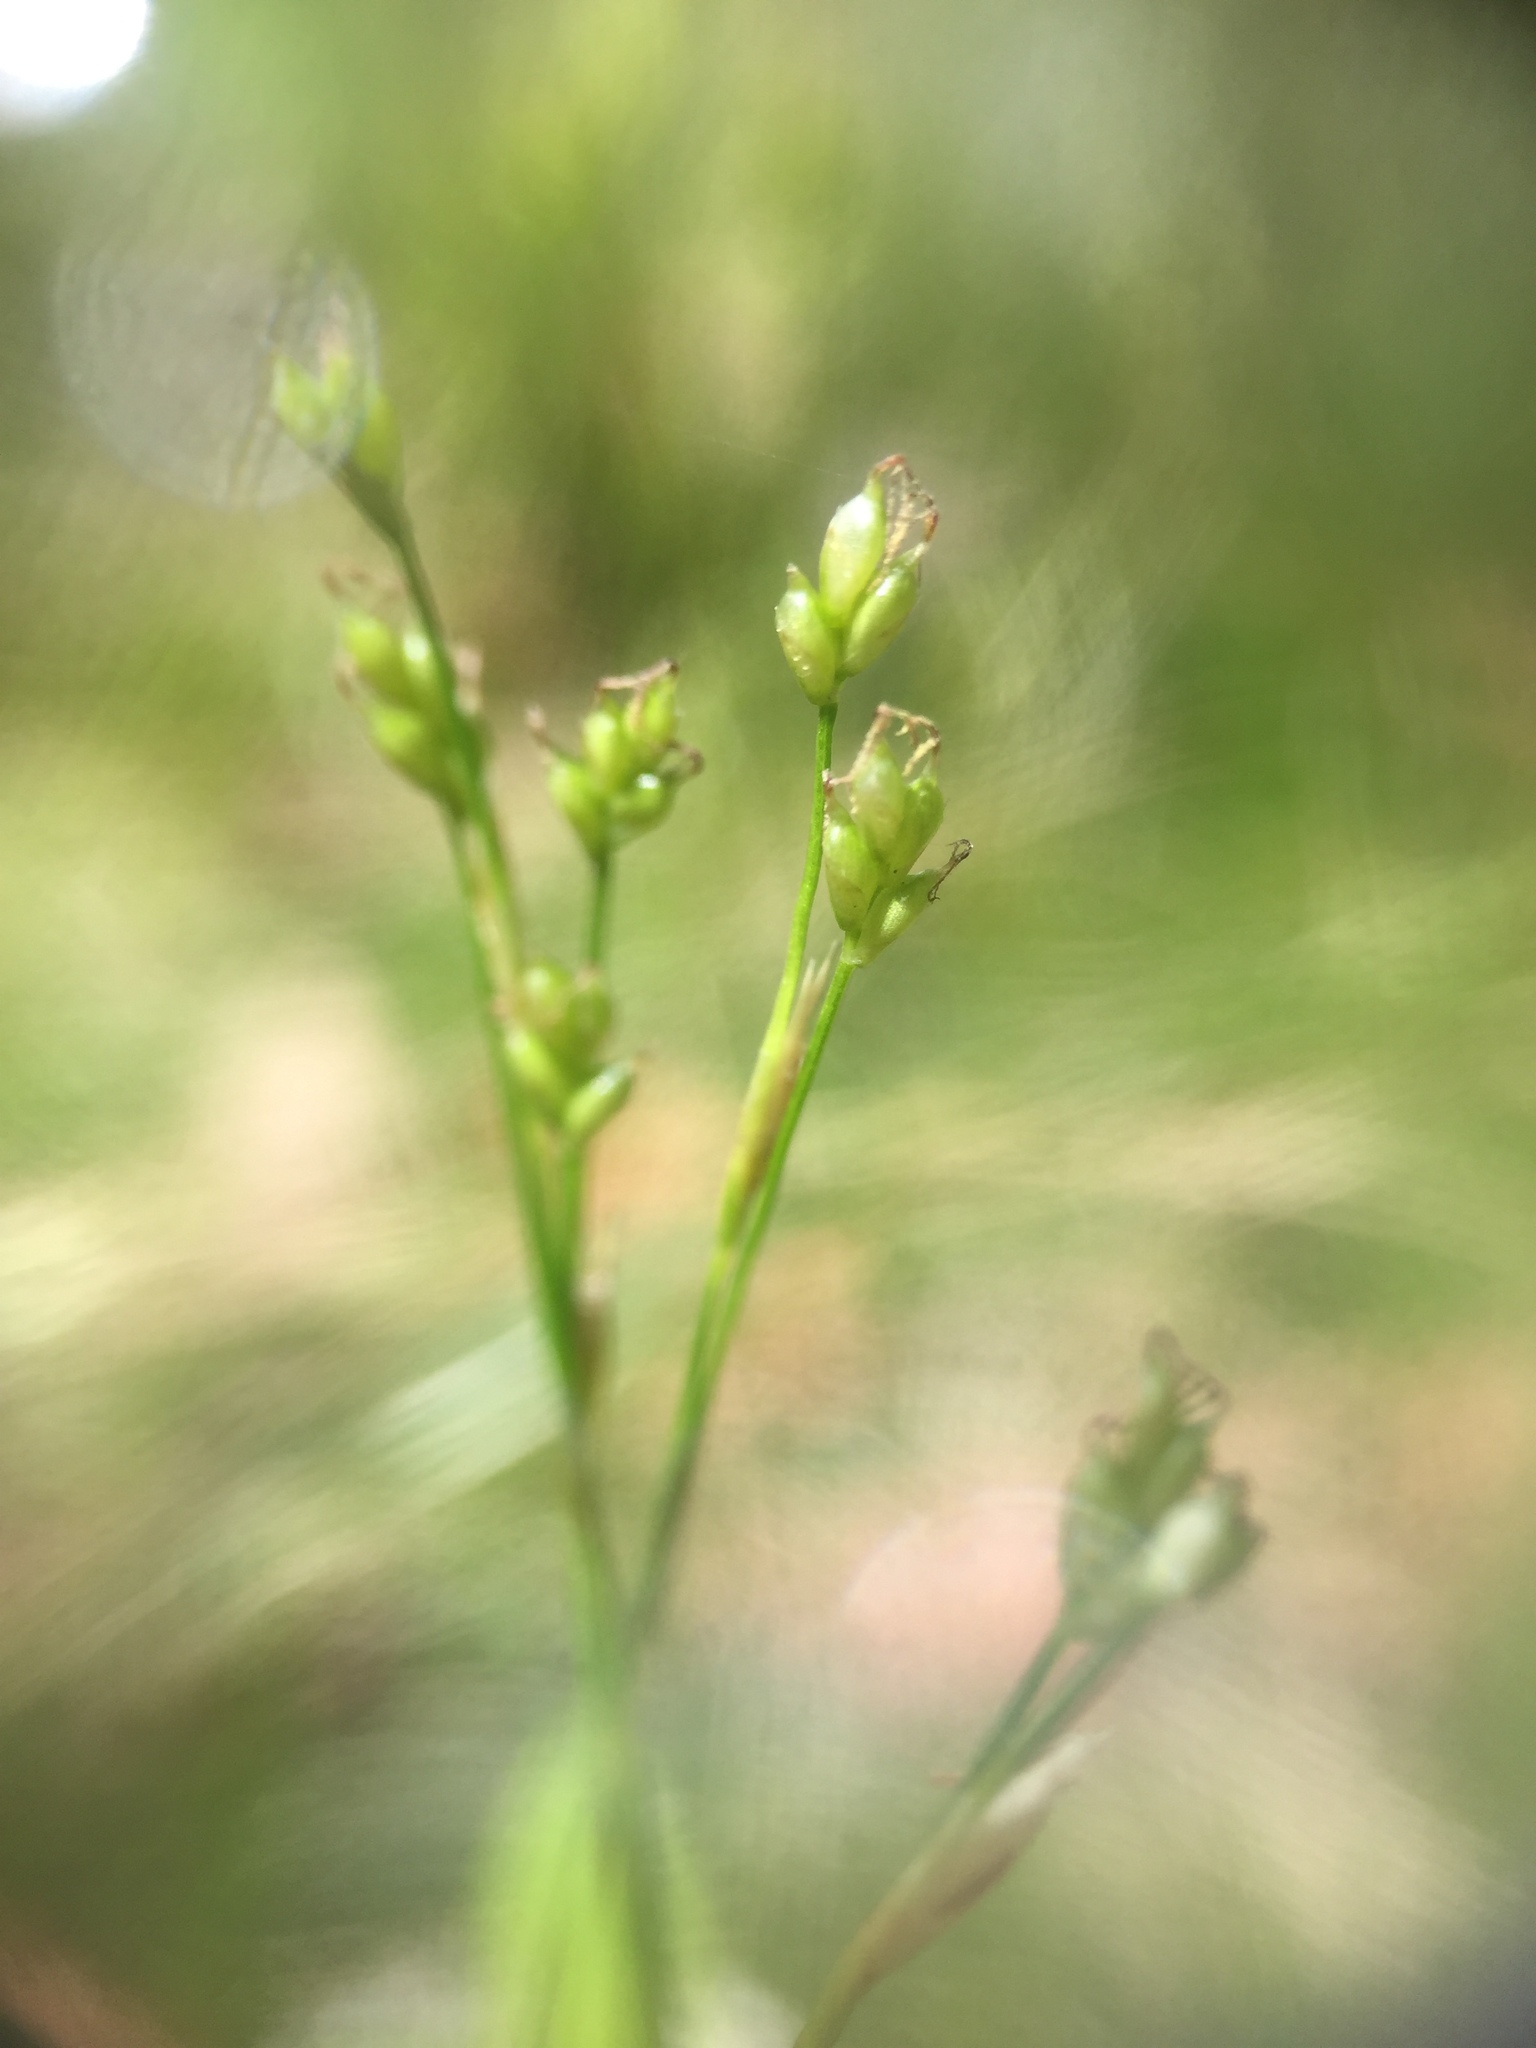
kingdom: Plantae
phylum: Tracheophyta
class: Liliopsida
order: Poales
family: Cyperaceae
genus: Carex
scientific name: Carex eburnea
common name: Bristle-leaved sedge
